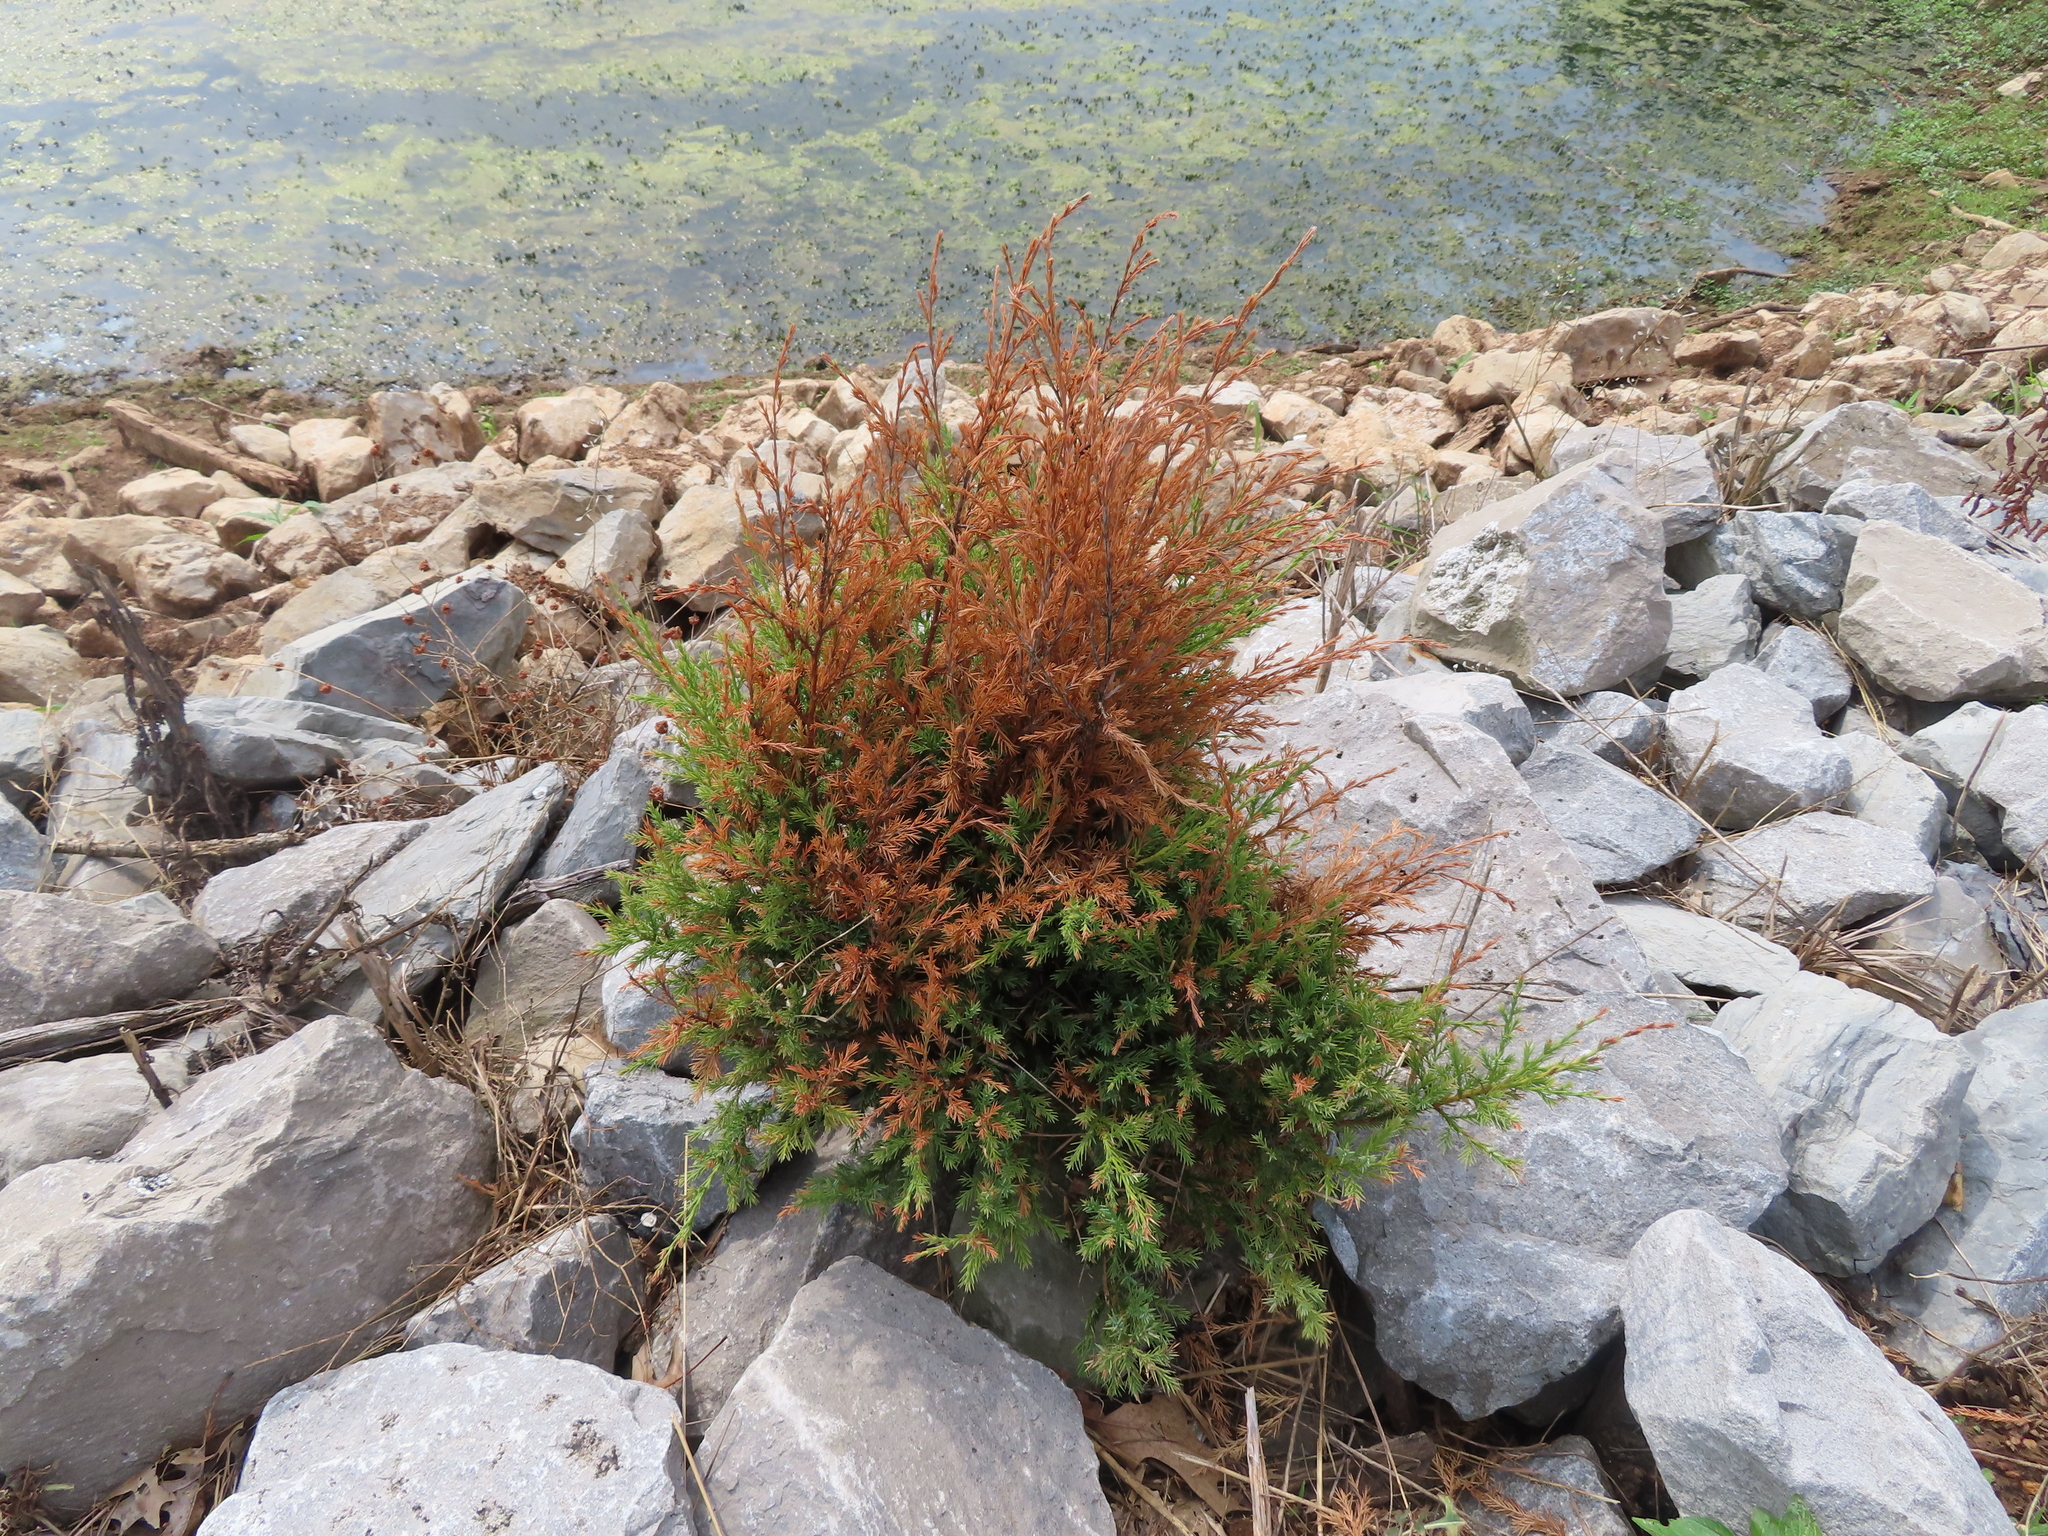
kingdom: Plantae
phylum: Tracheophyta
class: Pinopsida
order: Pinales
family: Cupressaceae
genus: Juniperus
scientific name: Juniperus virginiana
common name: Red juniper
